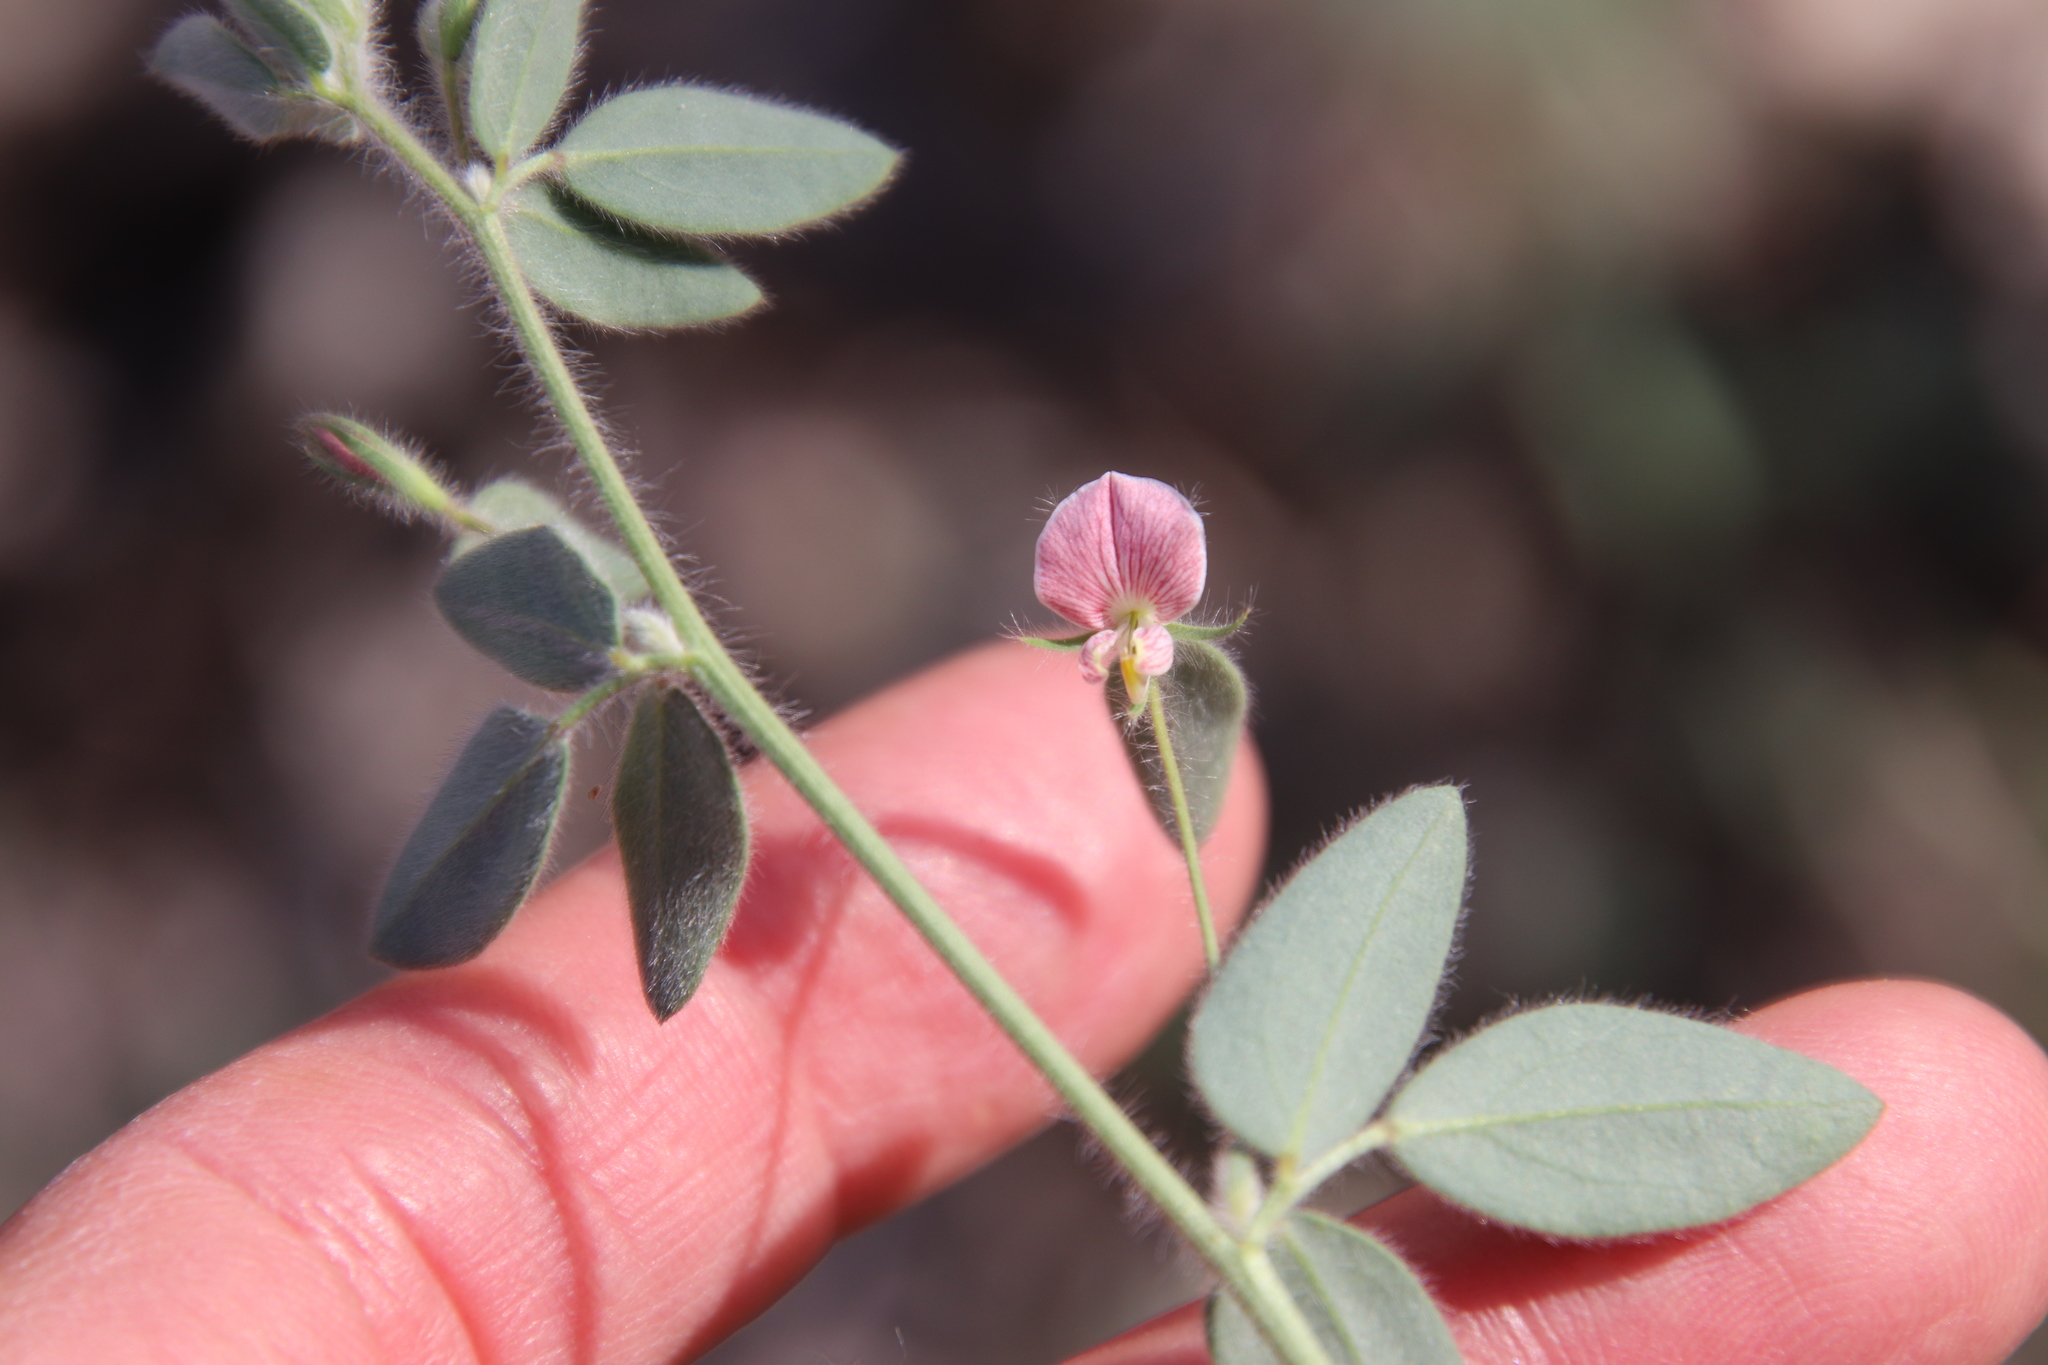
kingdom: Plantae
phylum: Tracheophyta
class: Magnoliopsida
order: Fabales
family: Fabaceae
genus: Acmispon
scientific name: Acmispon americanus
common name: American bird's-foot trefoil
